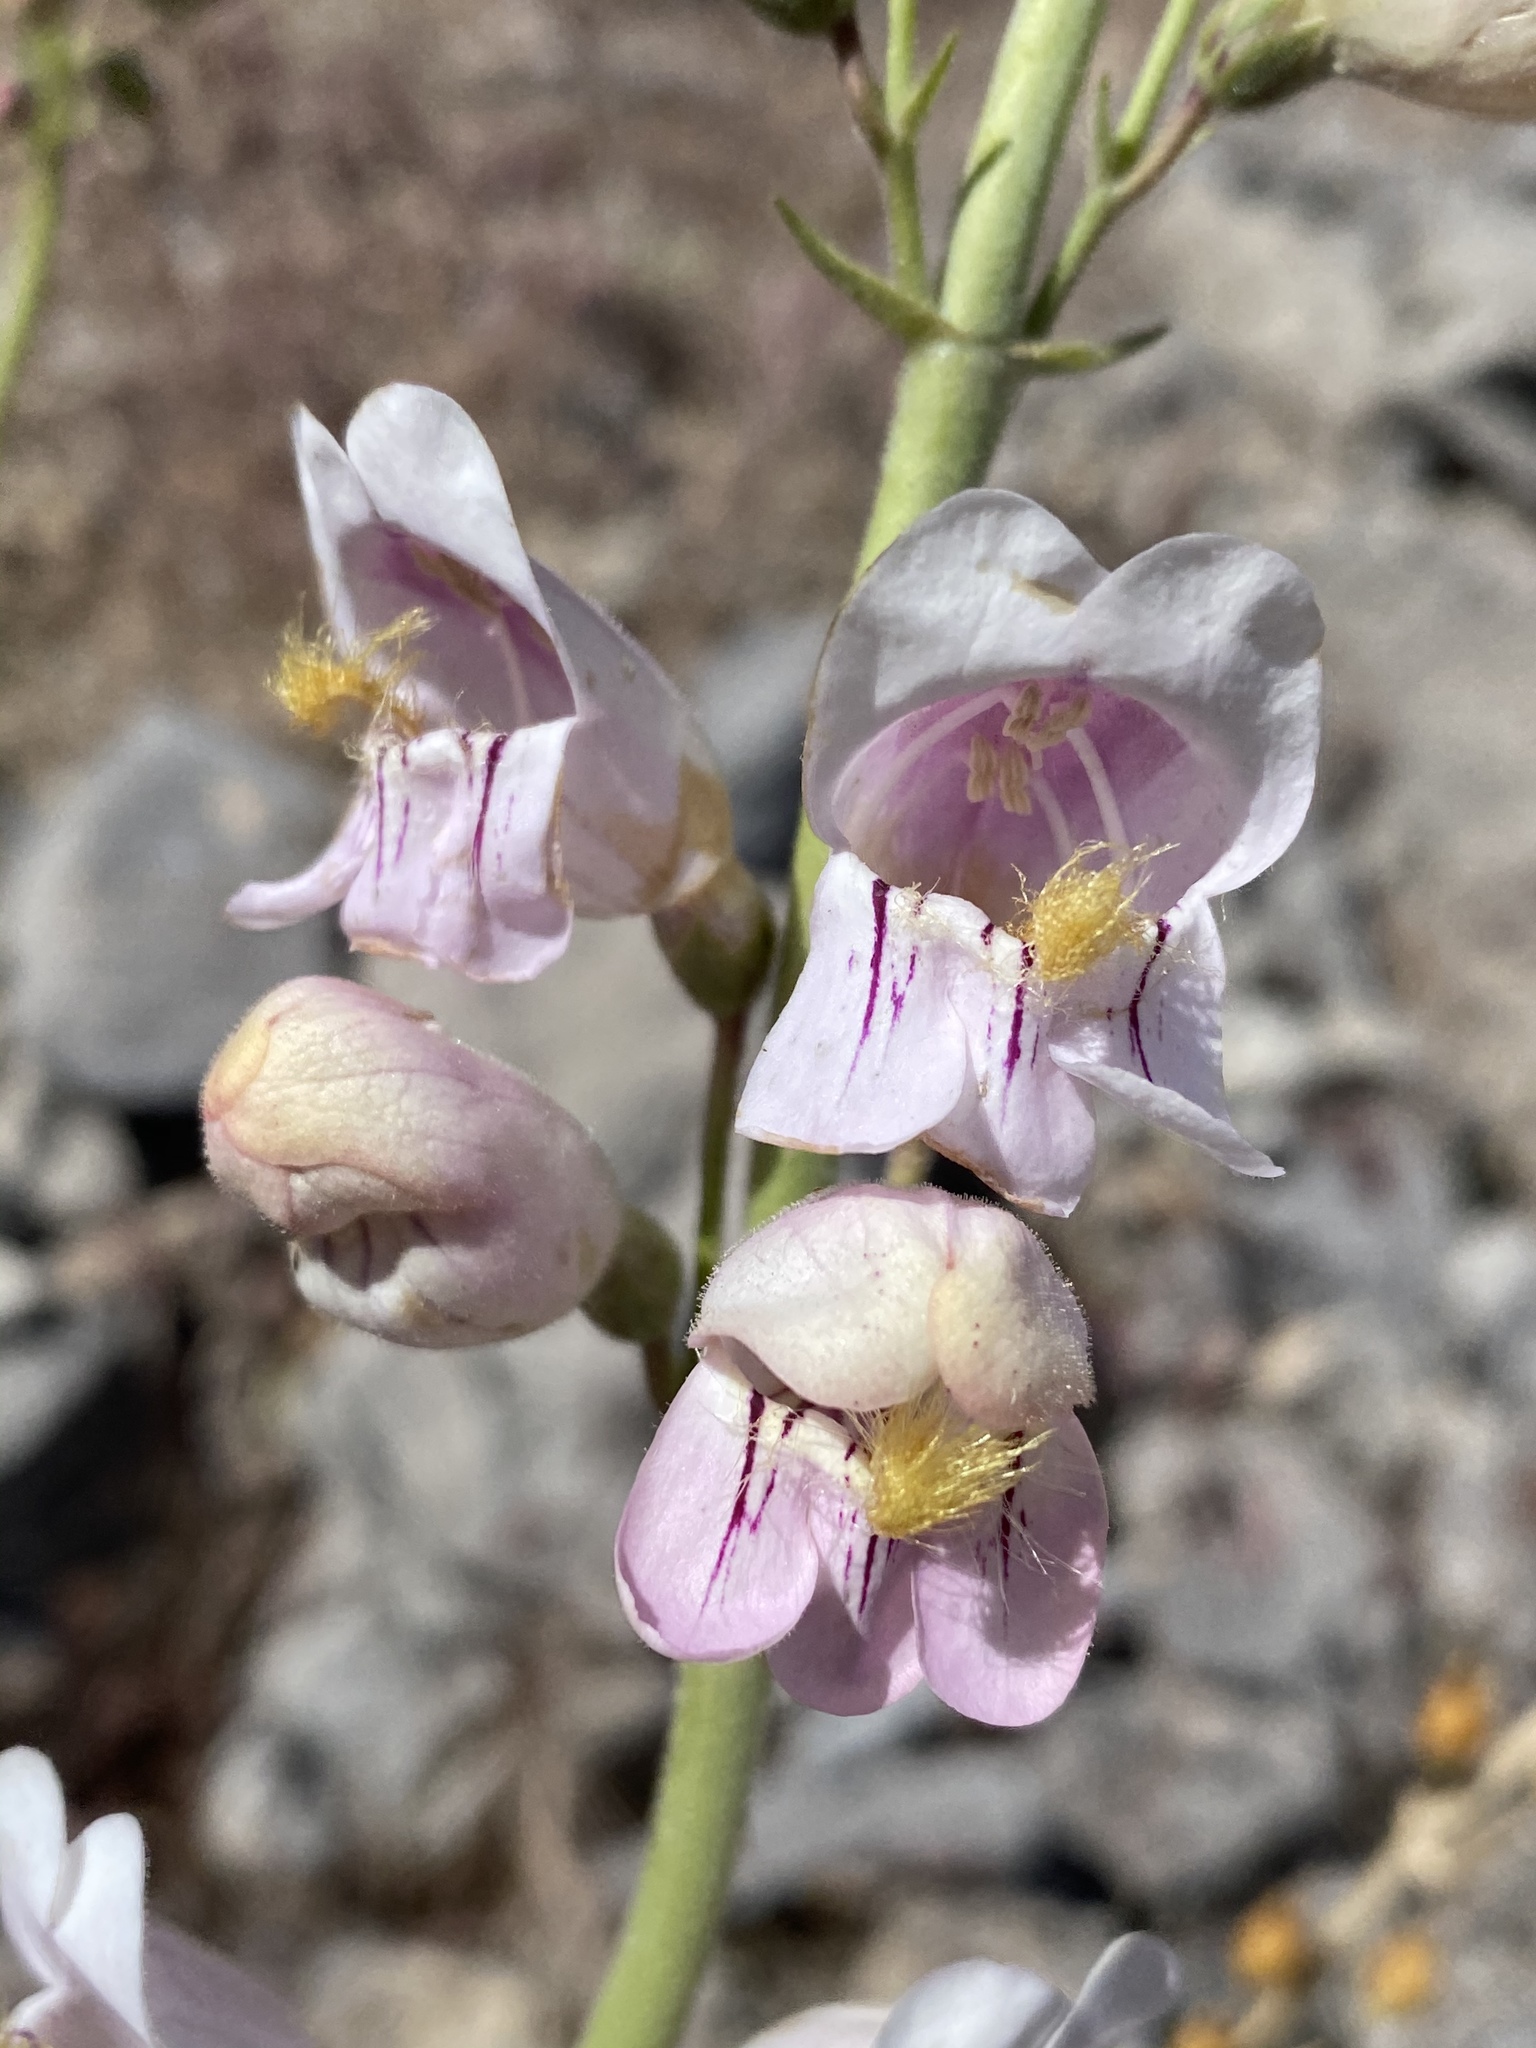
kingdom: Plantae
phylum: Tracheophyta
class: Magnoliopsida
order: Lamiales
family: Plantaginaceae
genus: Penstemon
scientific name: Penstemon palmeri
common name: Palmer penstemon
